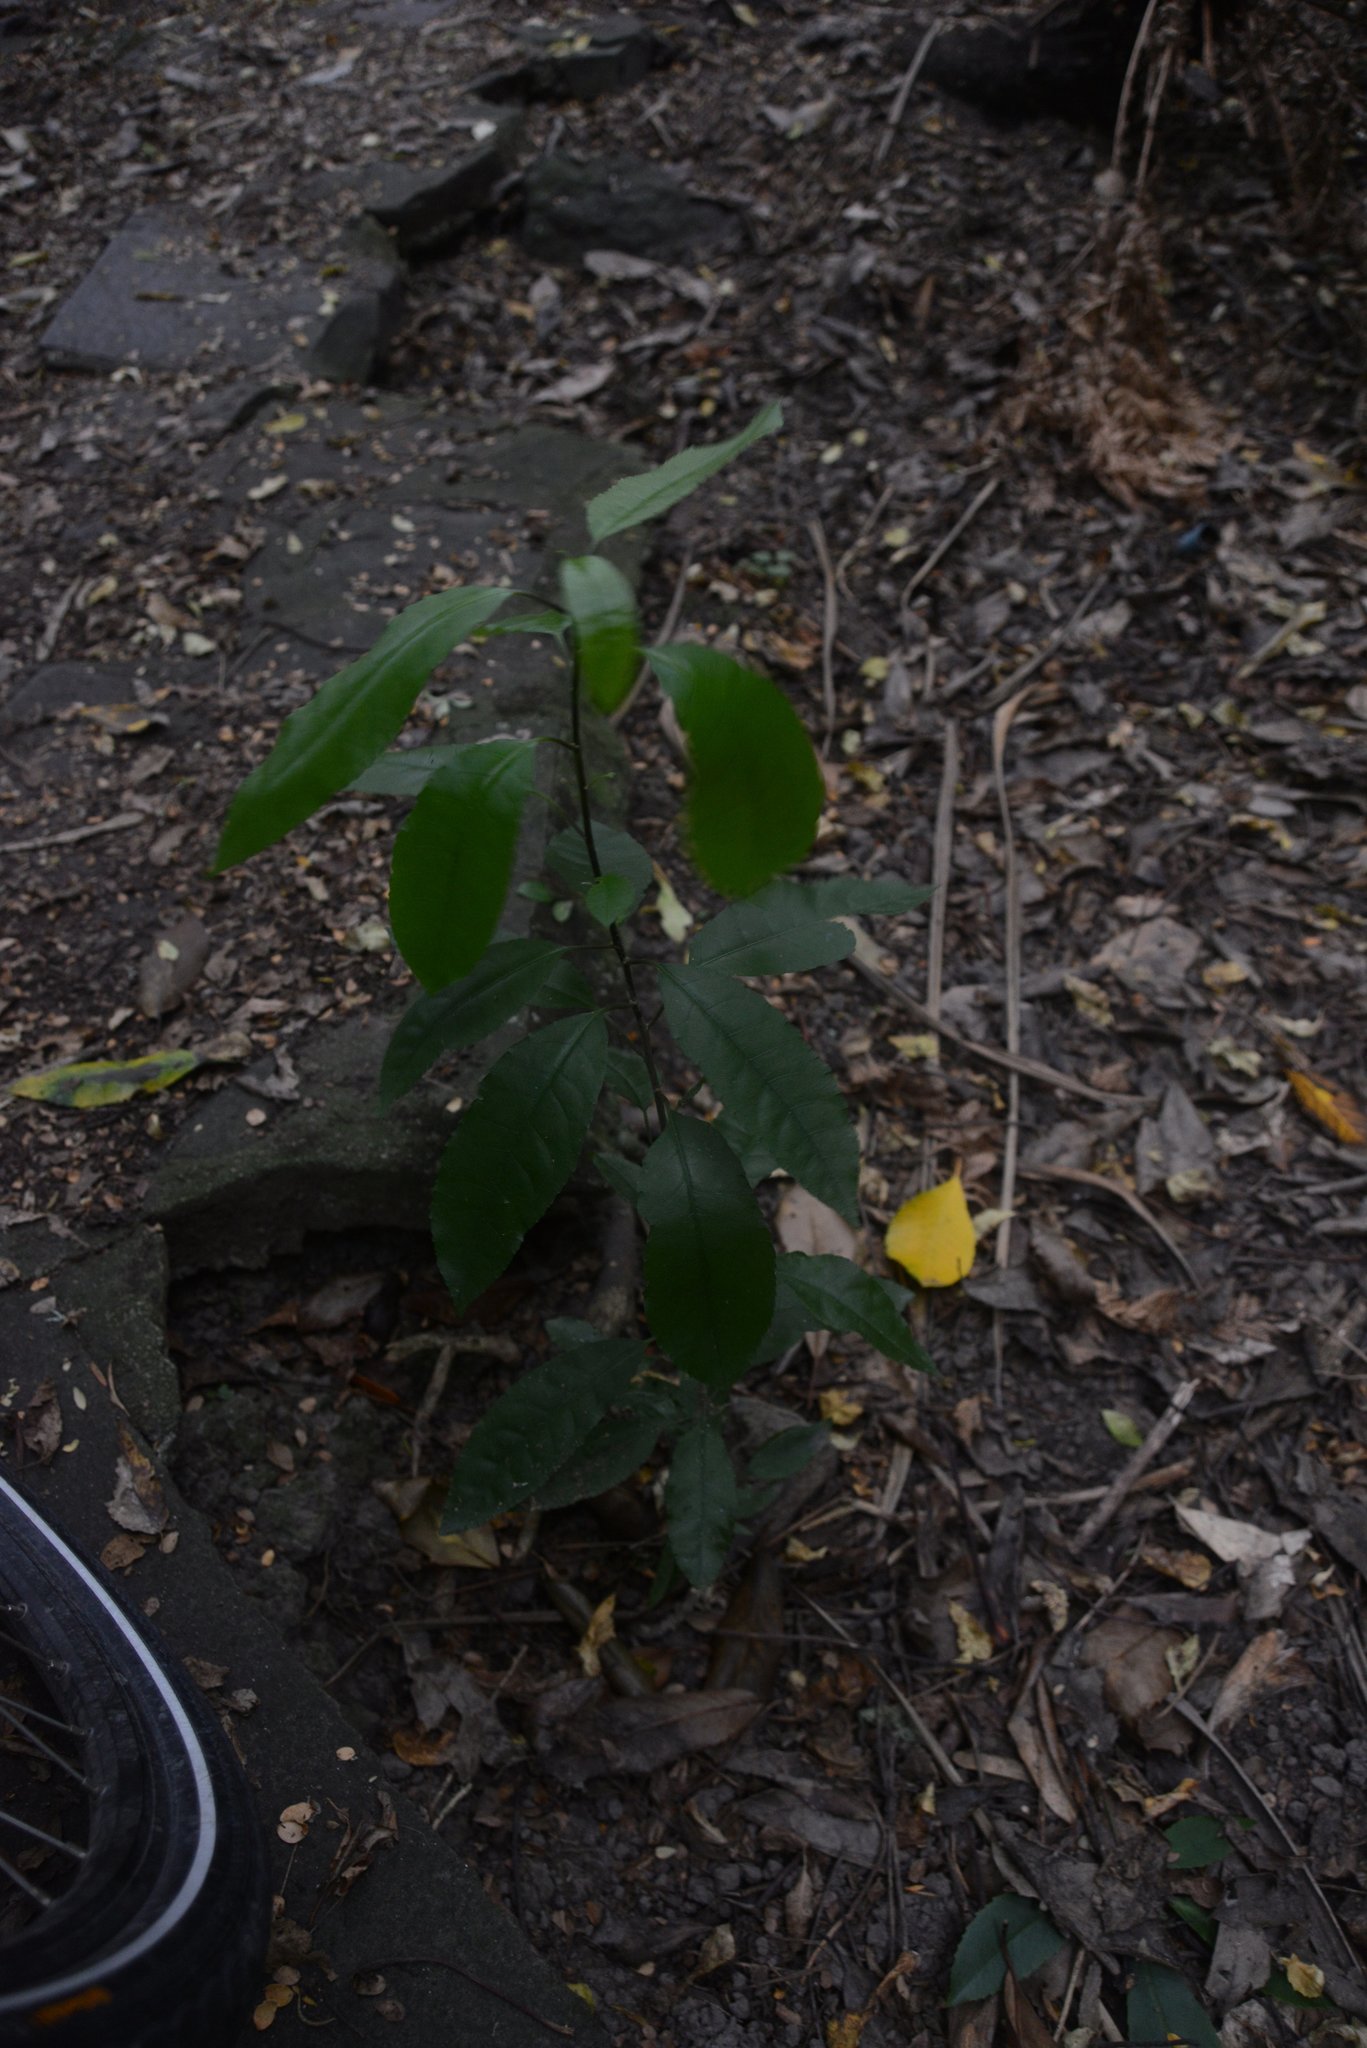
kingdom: Plantae
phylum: Tracheophyta
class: Magnoliopsida
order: Malpighiales
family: Violaceae
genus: Melicytus
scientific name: Melicytus ramiflorus
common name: Mahoe
